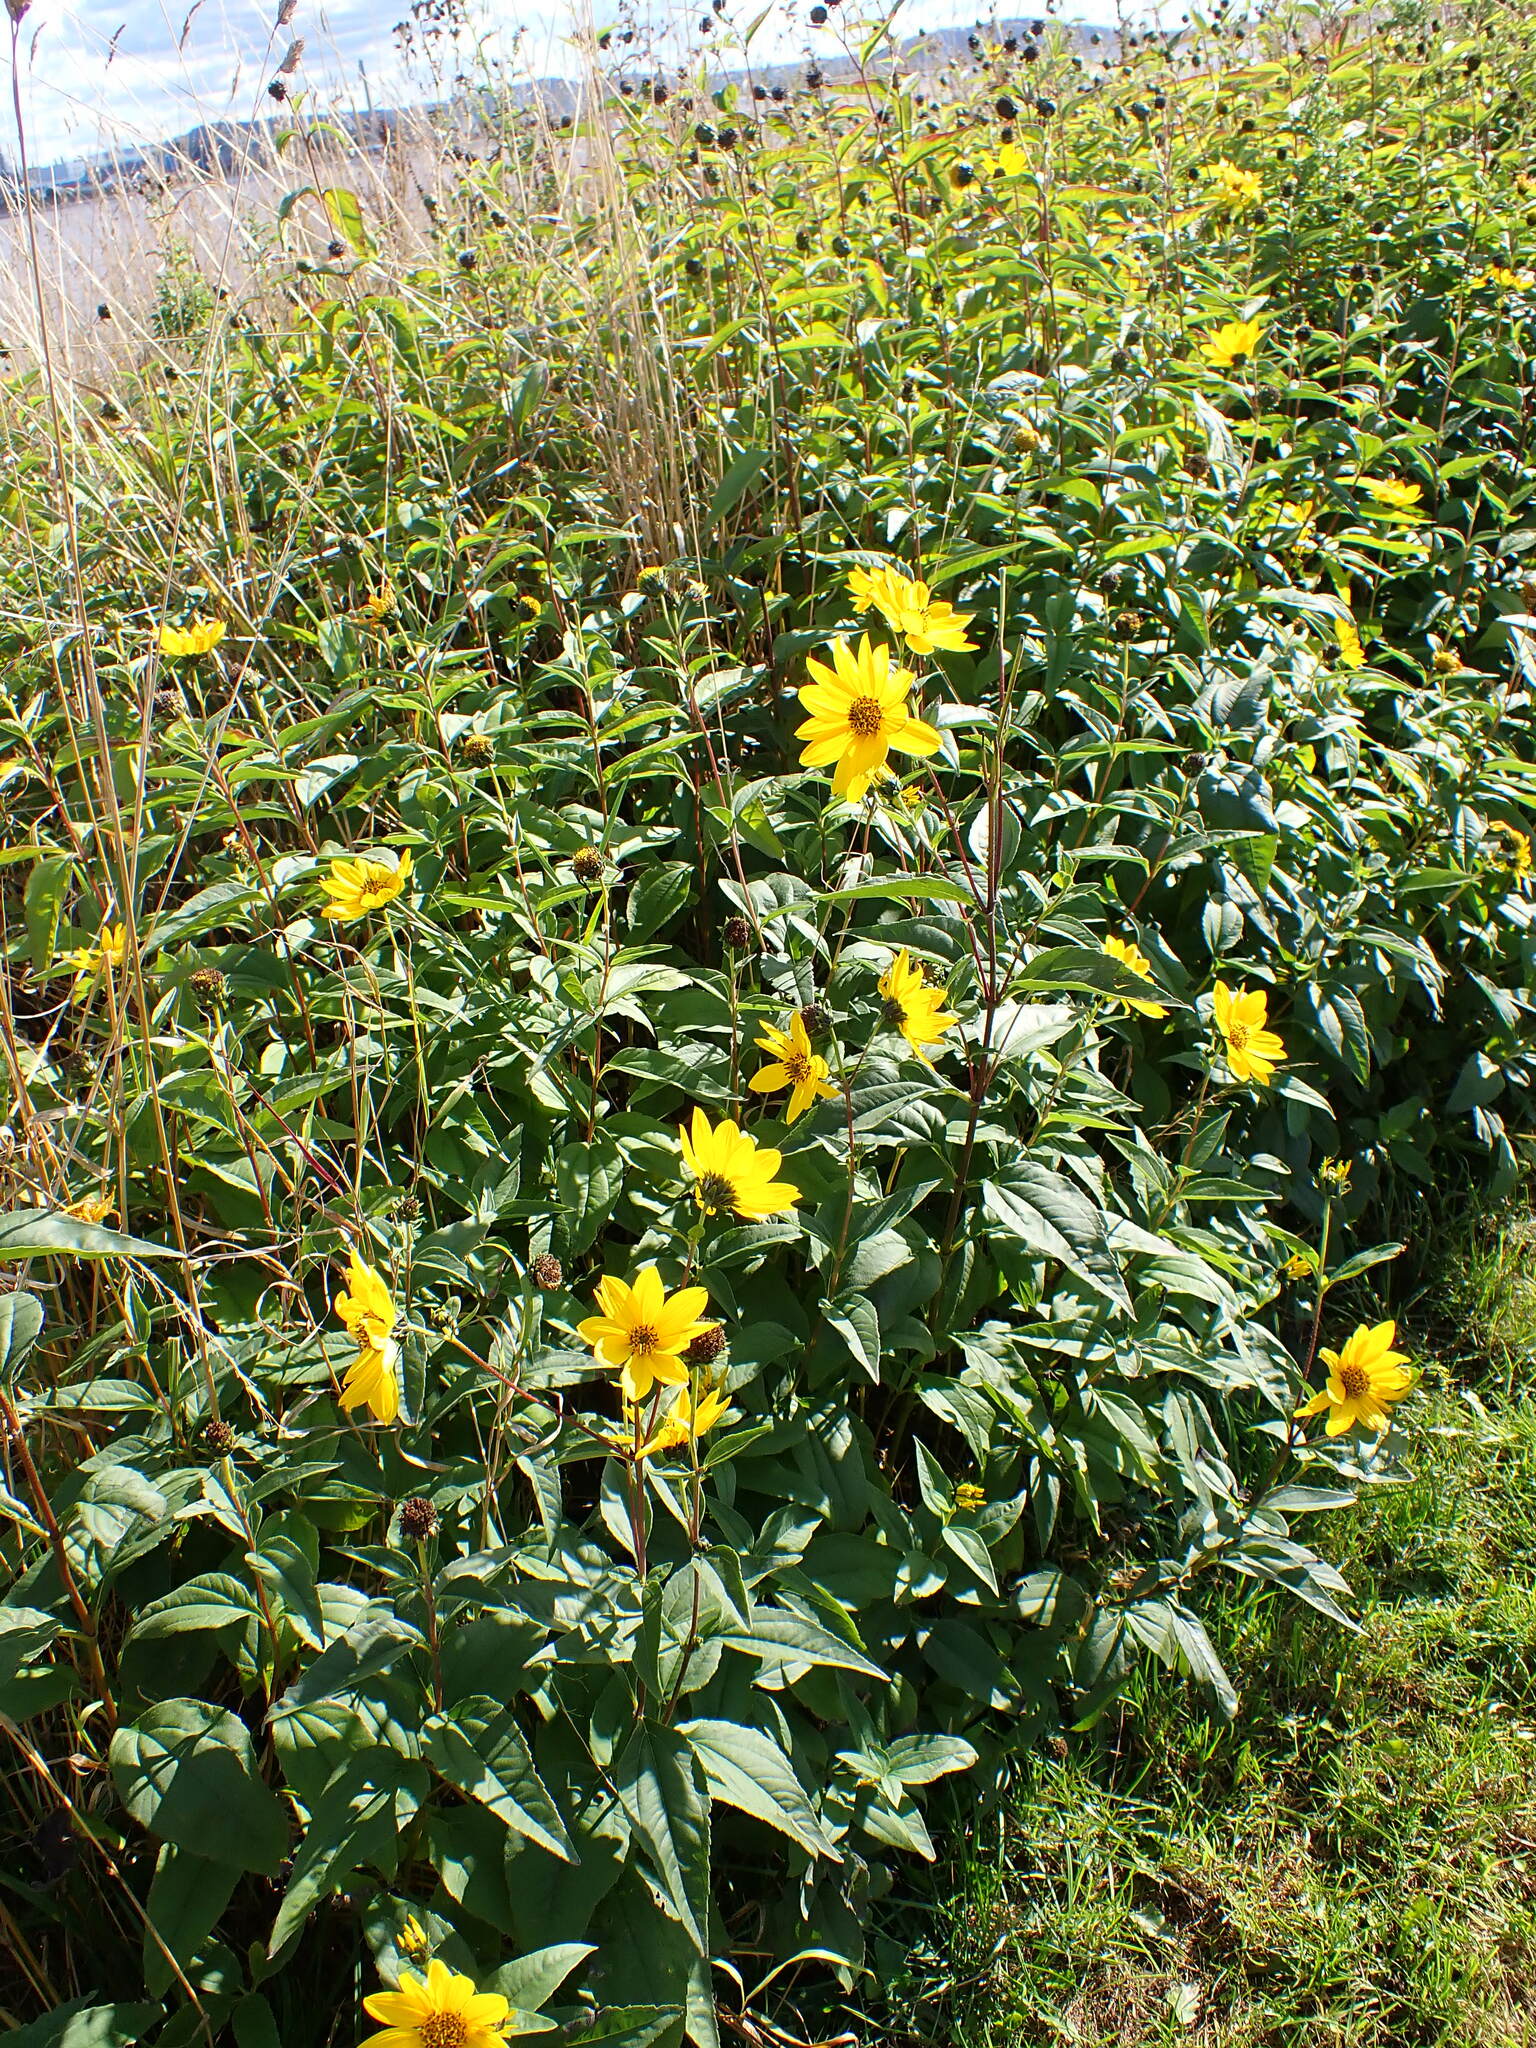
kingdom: Plantae
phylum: Tracheophyta
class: Magnoliopsida
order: Asterales
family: Asteraceae
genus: Helianthus
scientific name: Helianthus laetiflorus
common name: Perennial sunflower
